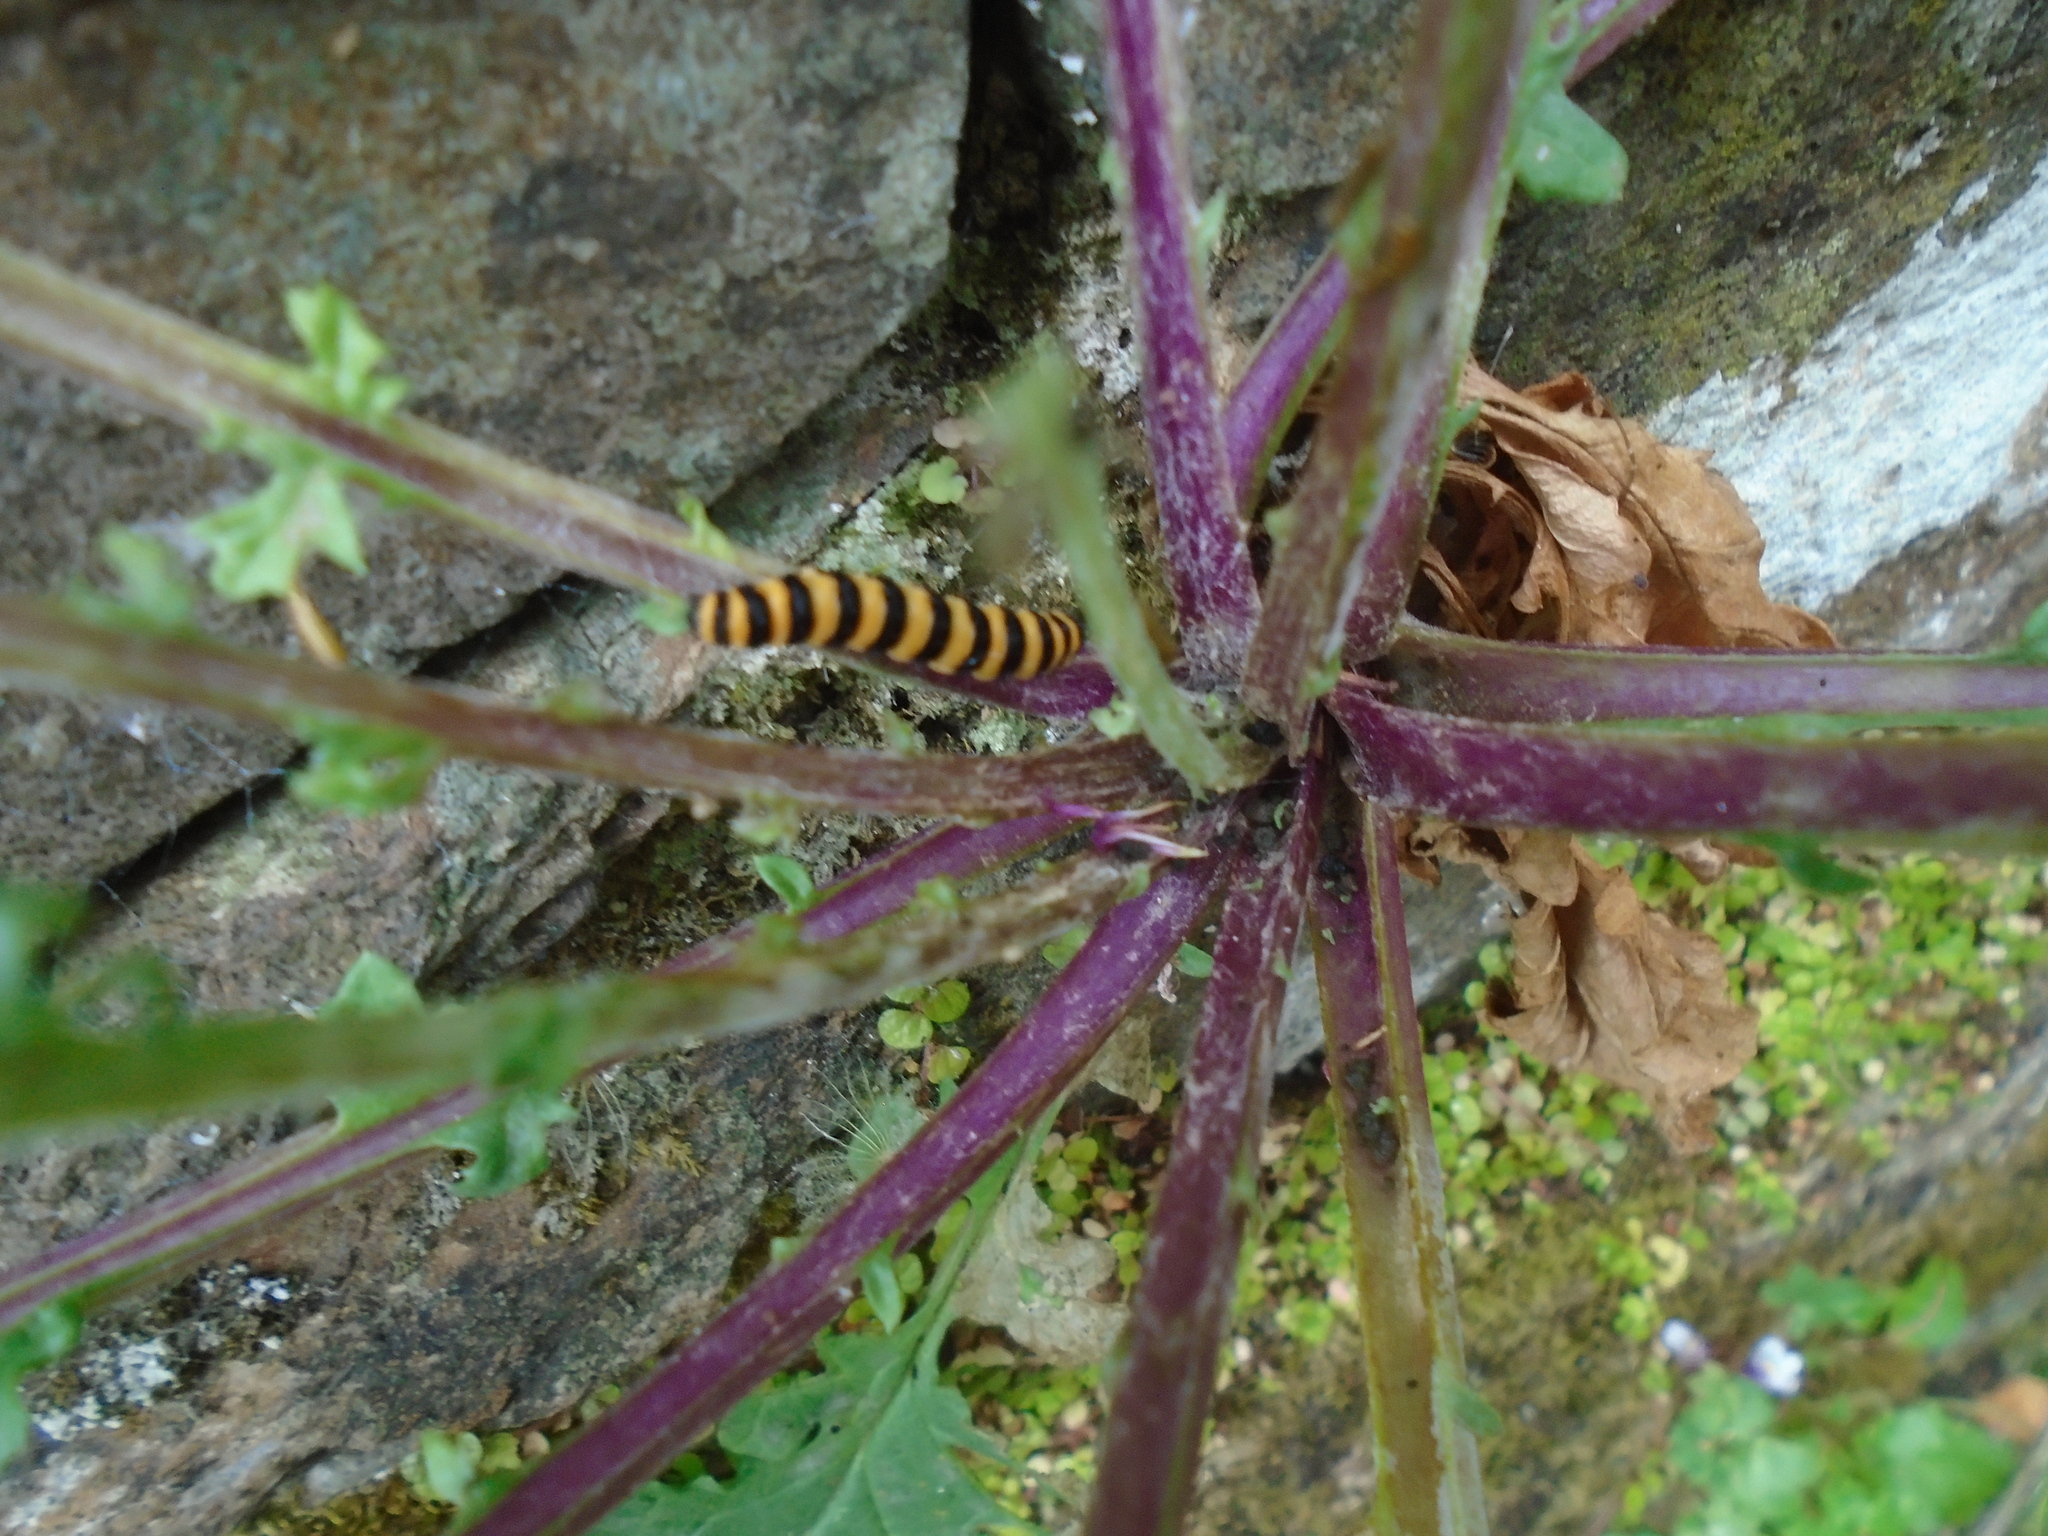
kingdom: Animalia
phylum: Arthropoda
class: Insecta
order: Lepidoptera
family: Erebidae
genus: Tyria
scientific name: Tyria jacobaeae
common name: Cinnabar
